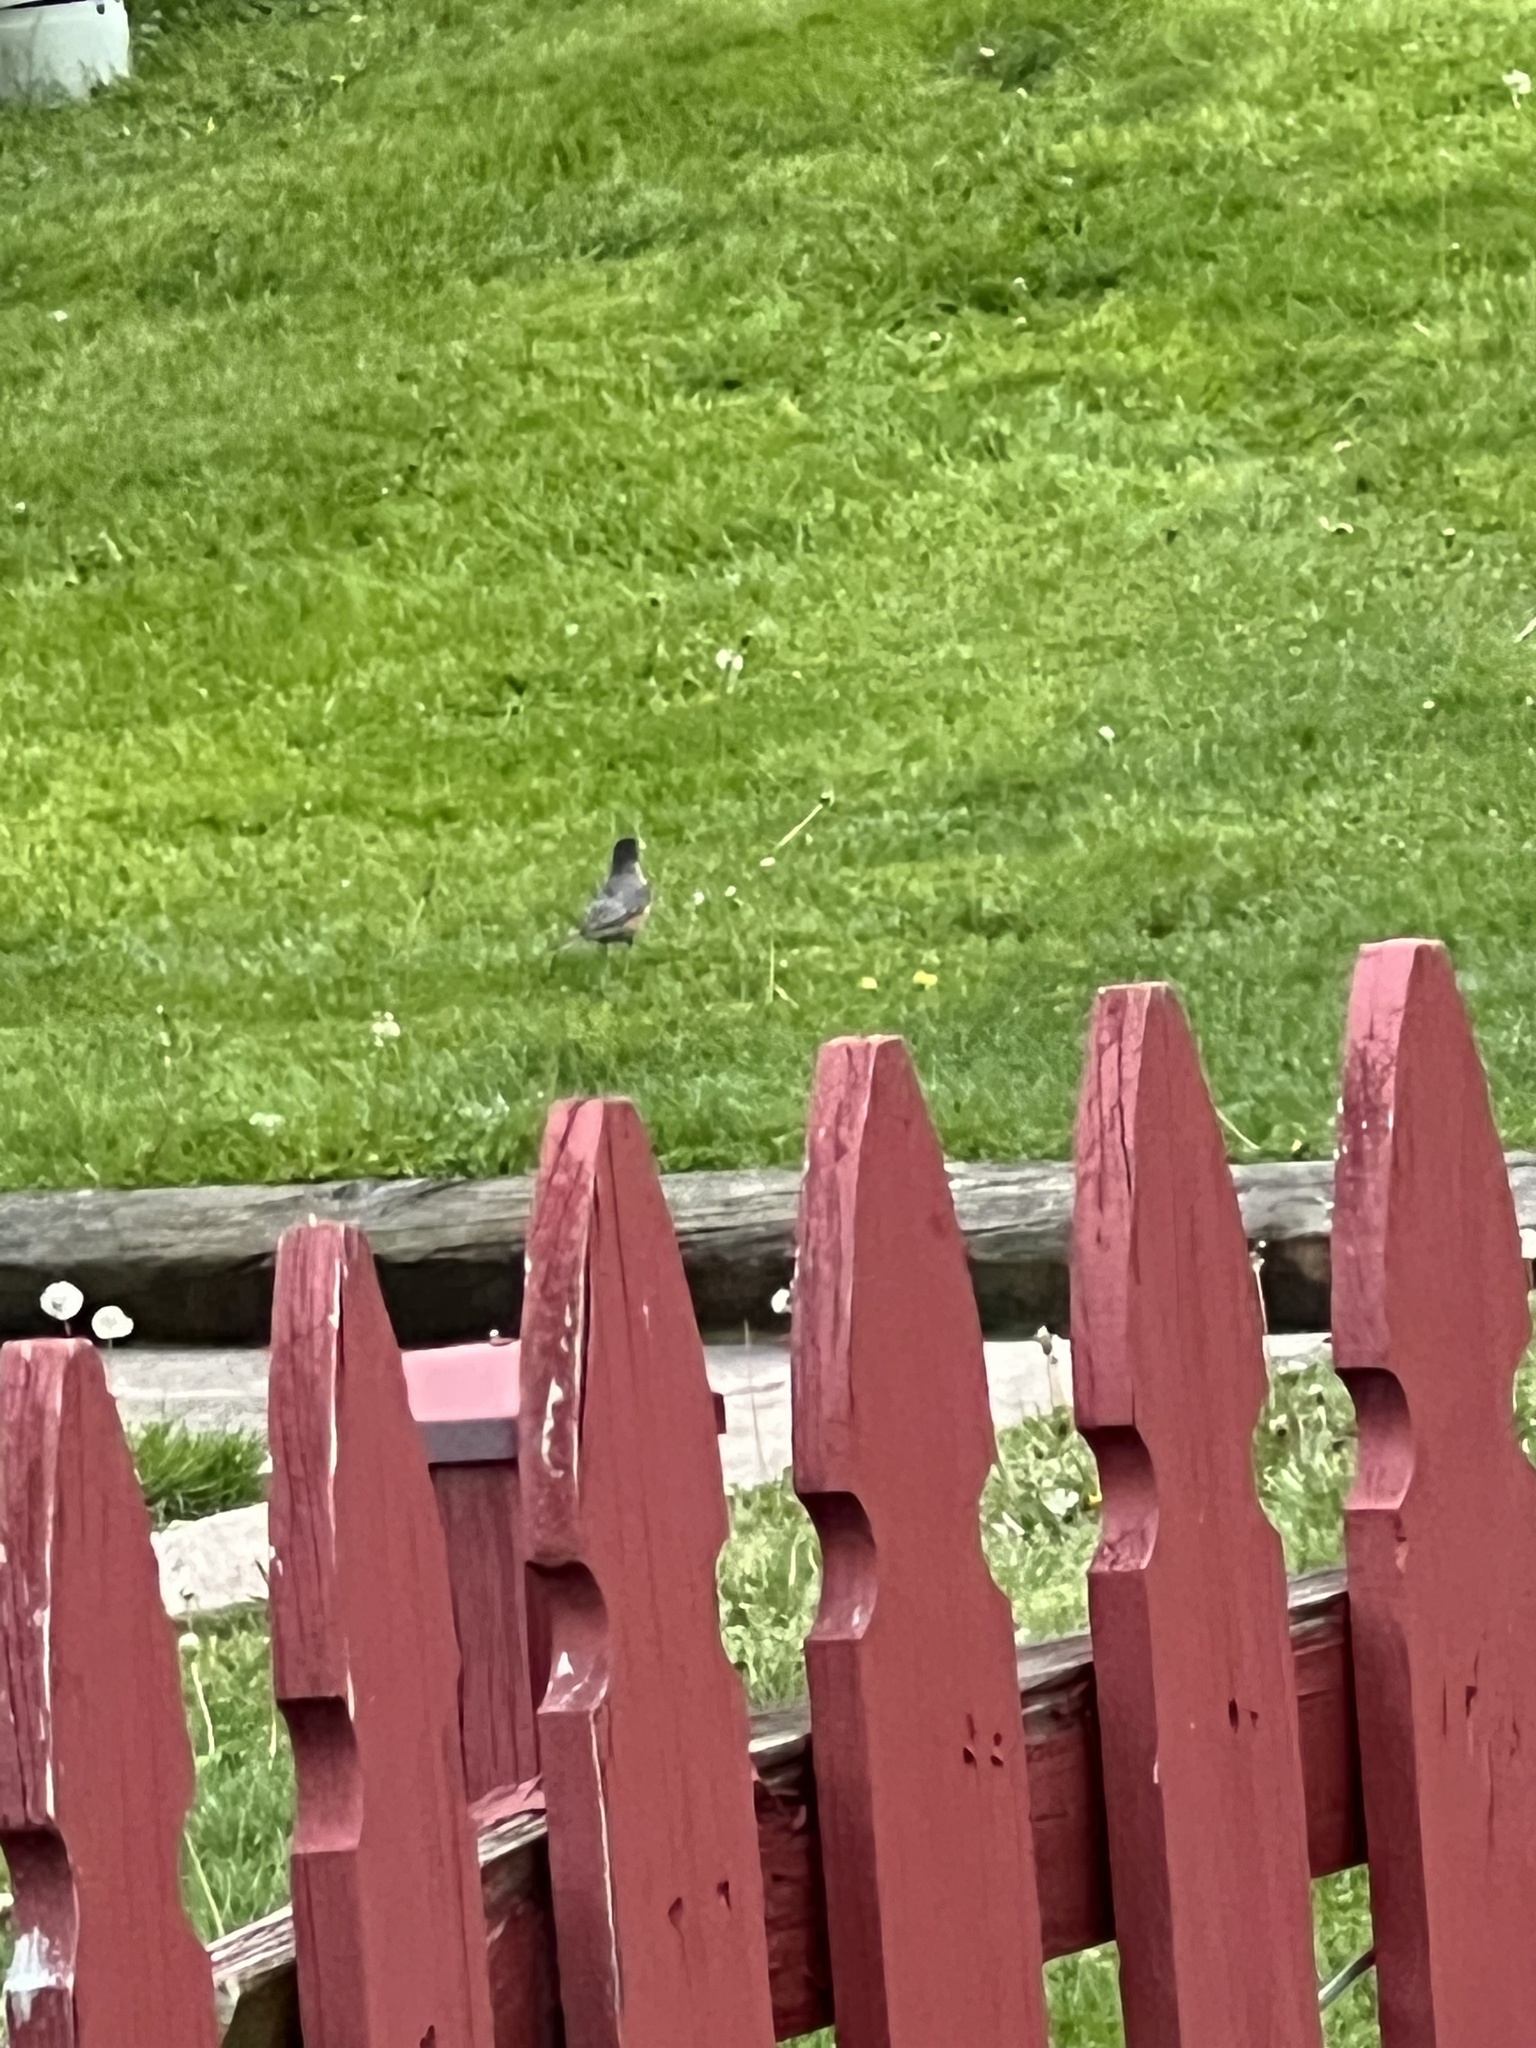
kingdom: Animalia
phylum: Chordata
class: Aves
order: Passeriformes
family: Turdidae
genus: Turdus
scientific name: Turdus migratorius
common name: American robin
